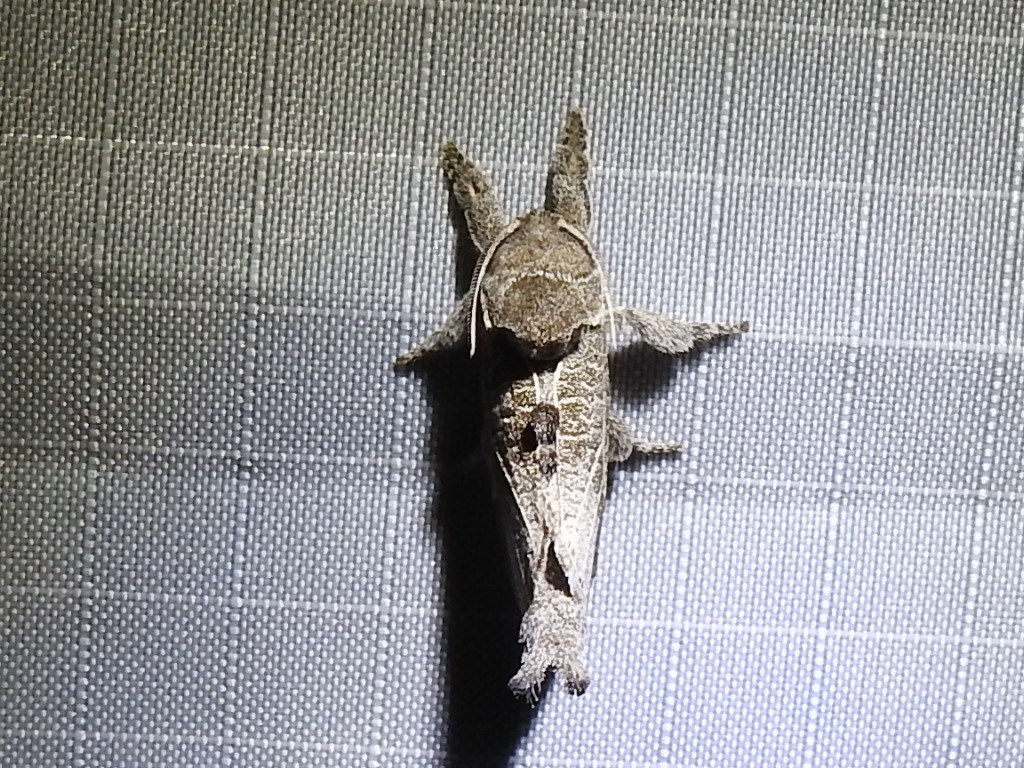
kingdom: Animalia
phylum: Arthropoda
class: Insecta
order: Lepidoptera
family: Cossidae
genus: Givira
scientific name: Givira anna
